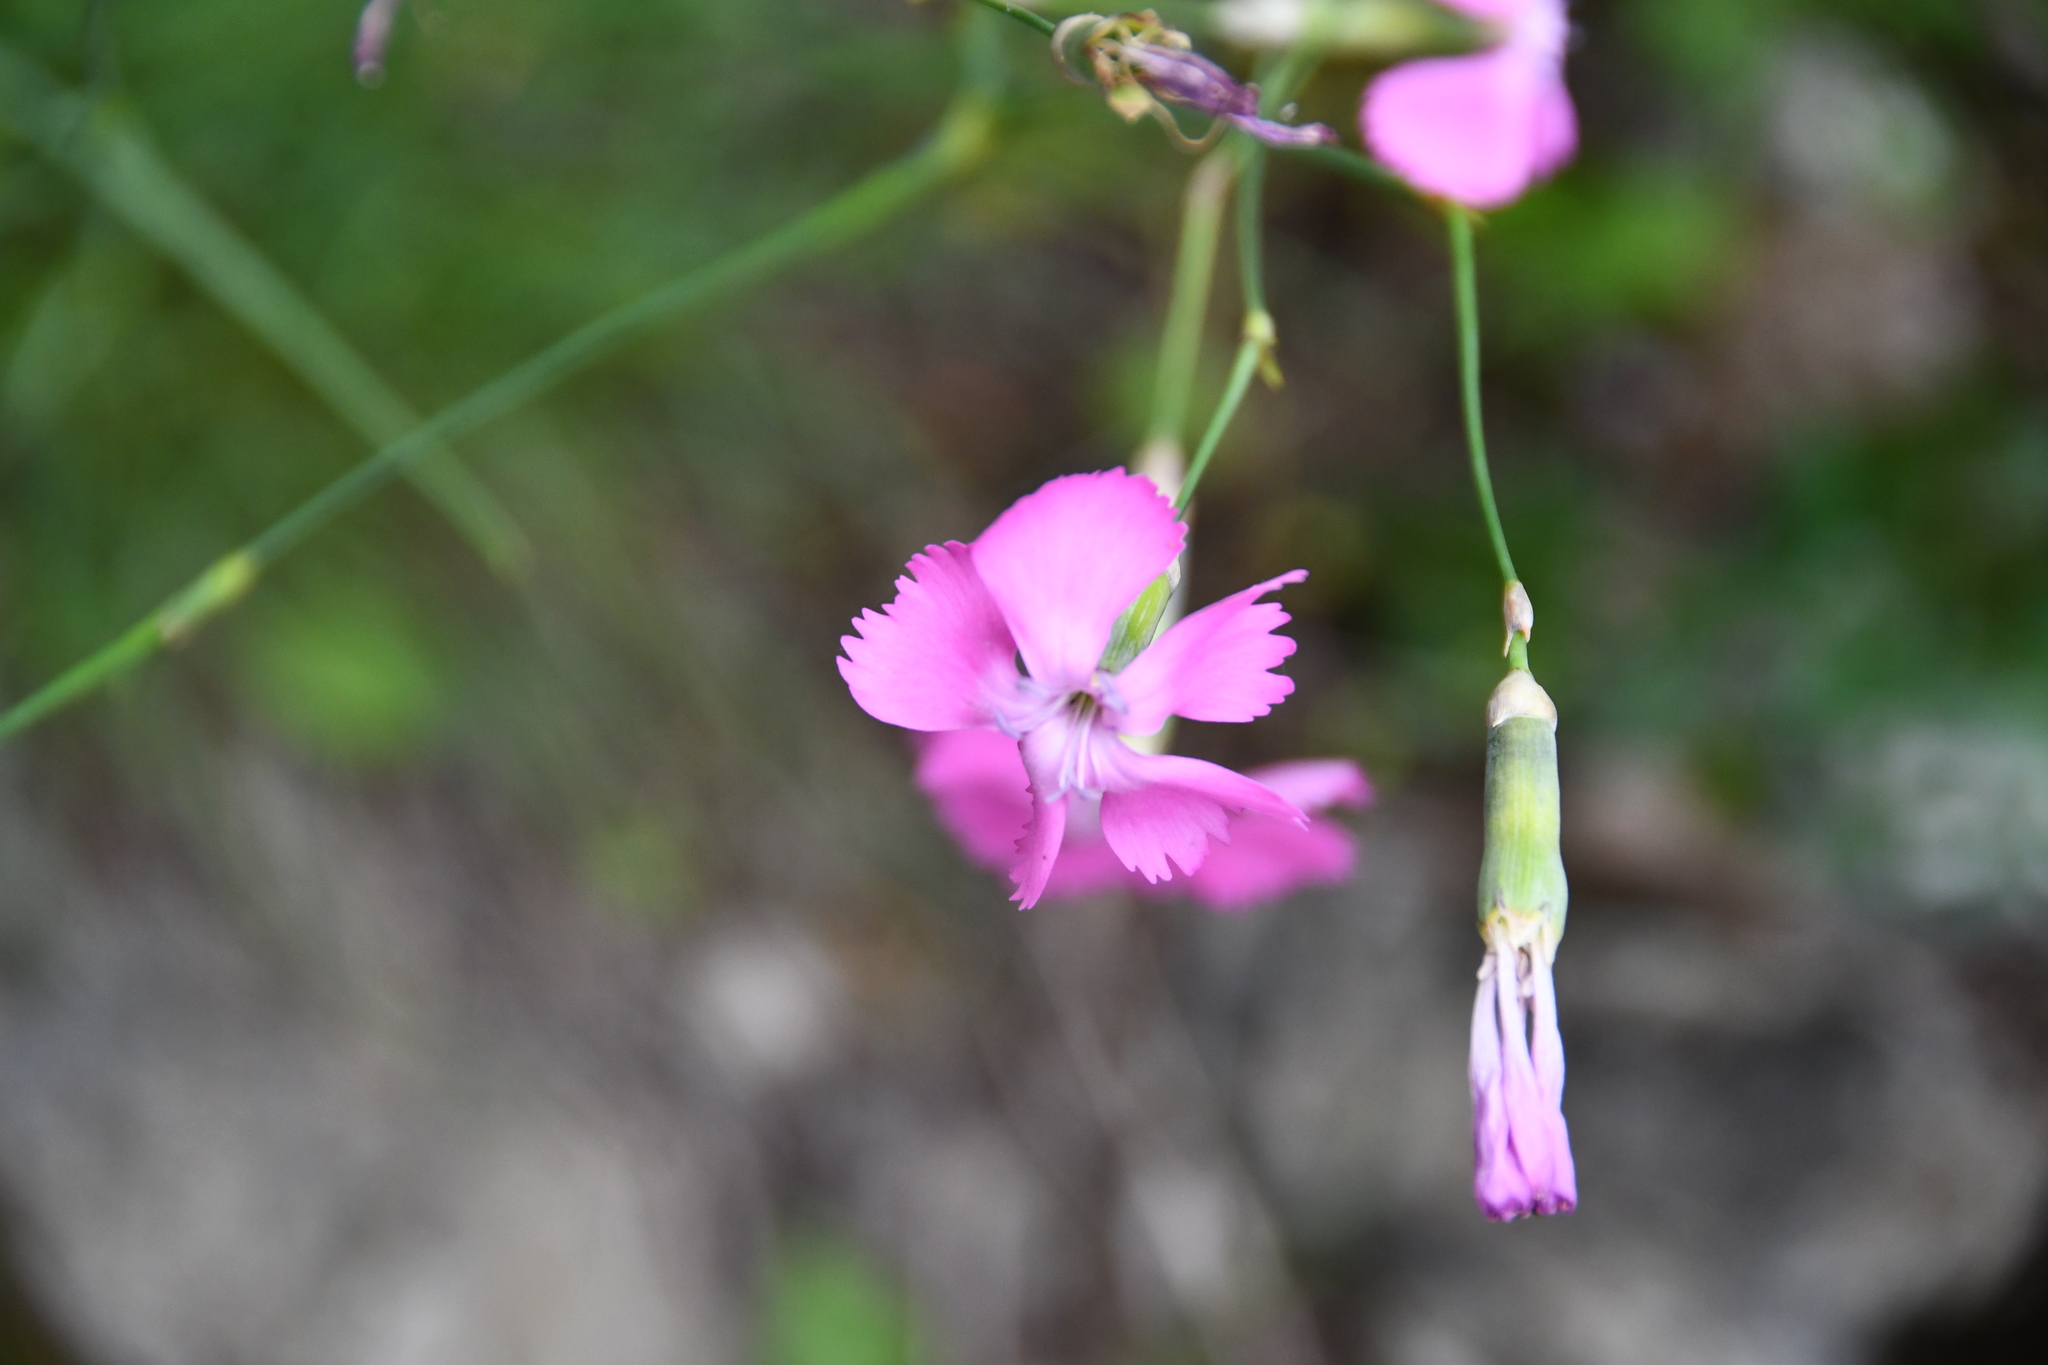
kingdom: Plantae
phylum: Tracheophyta
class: Magnoliopsida
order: Caryophyllales
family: Caryophyllaceae
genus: Dianthus
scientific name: Dianthus sylvestris
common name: Wood pink
